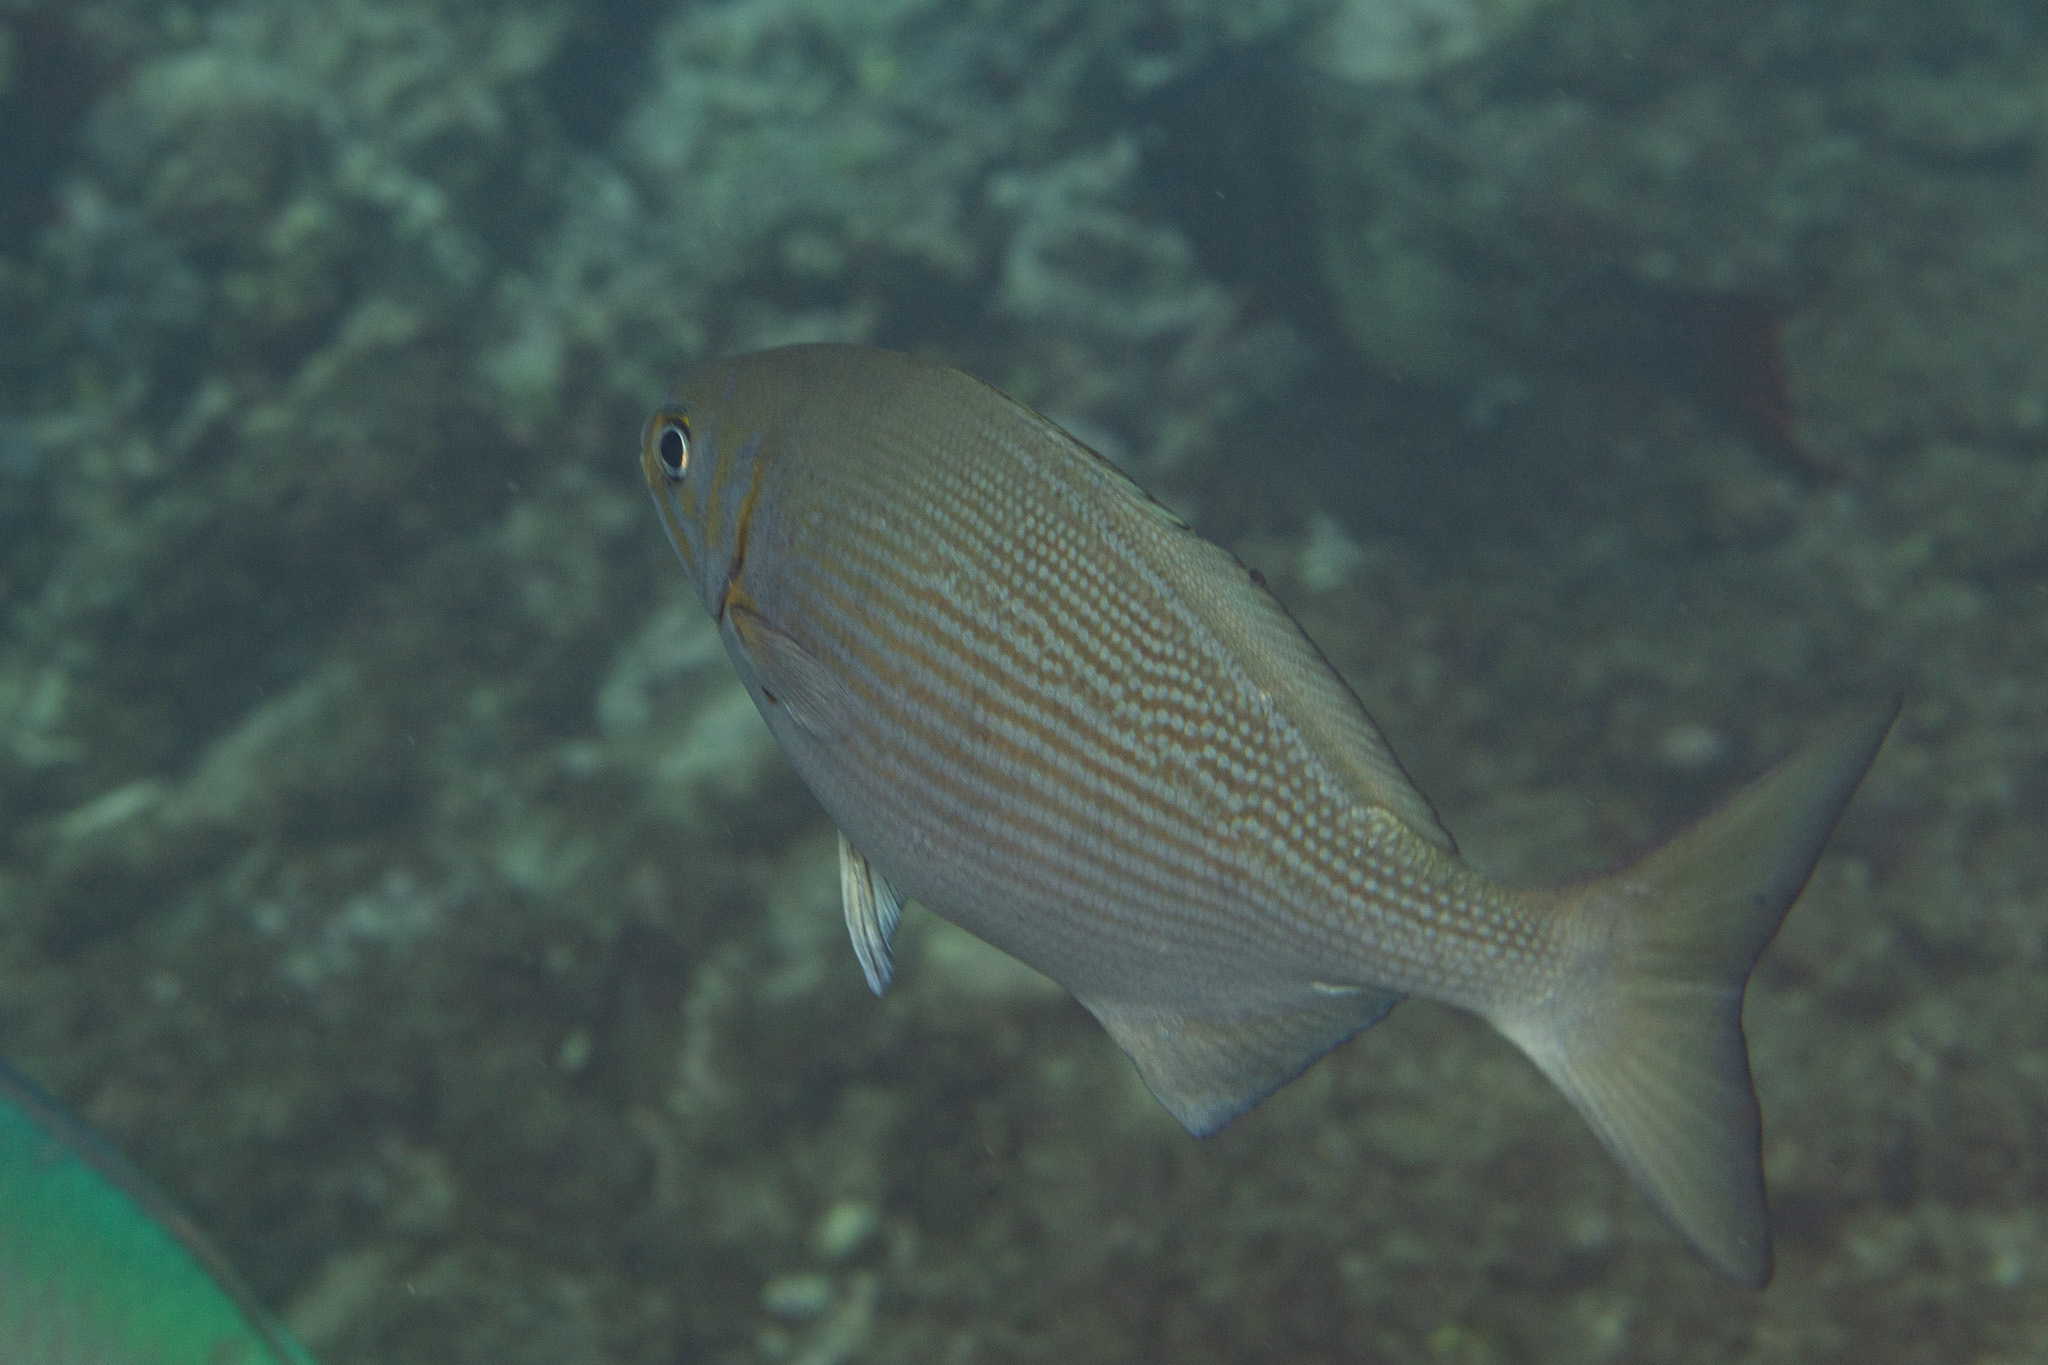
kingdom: Animalia
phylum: Chordata
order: Perciformes
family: Kyphosidae
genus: Kyphosus
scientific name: Kyphosus vaigiensis
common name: Brassy chub
